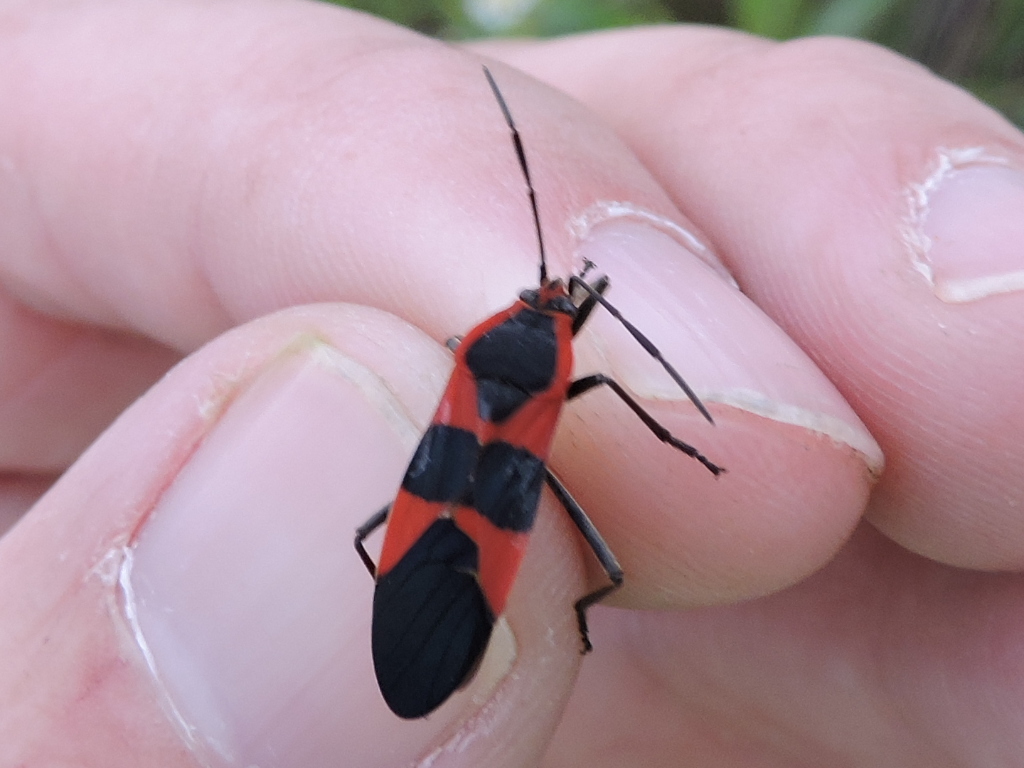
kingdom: Animalia
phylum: Arthropoda
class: Insecta
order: Hemiptera
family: Lygaeidae
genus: Oncopeltus
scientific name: Oncopeltus fasciatus
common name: Large milkweed bug
